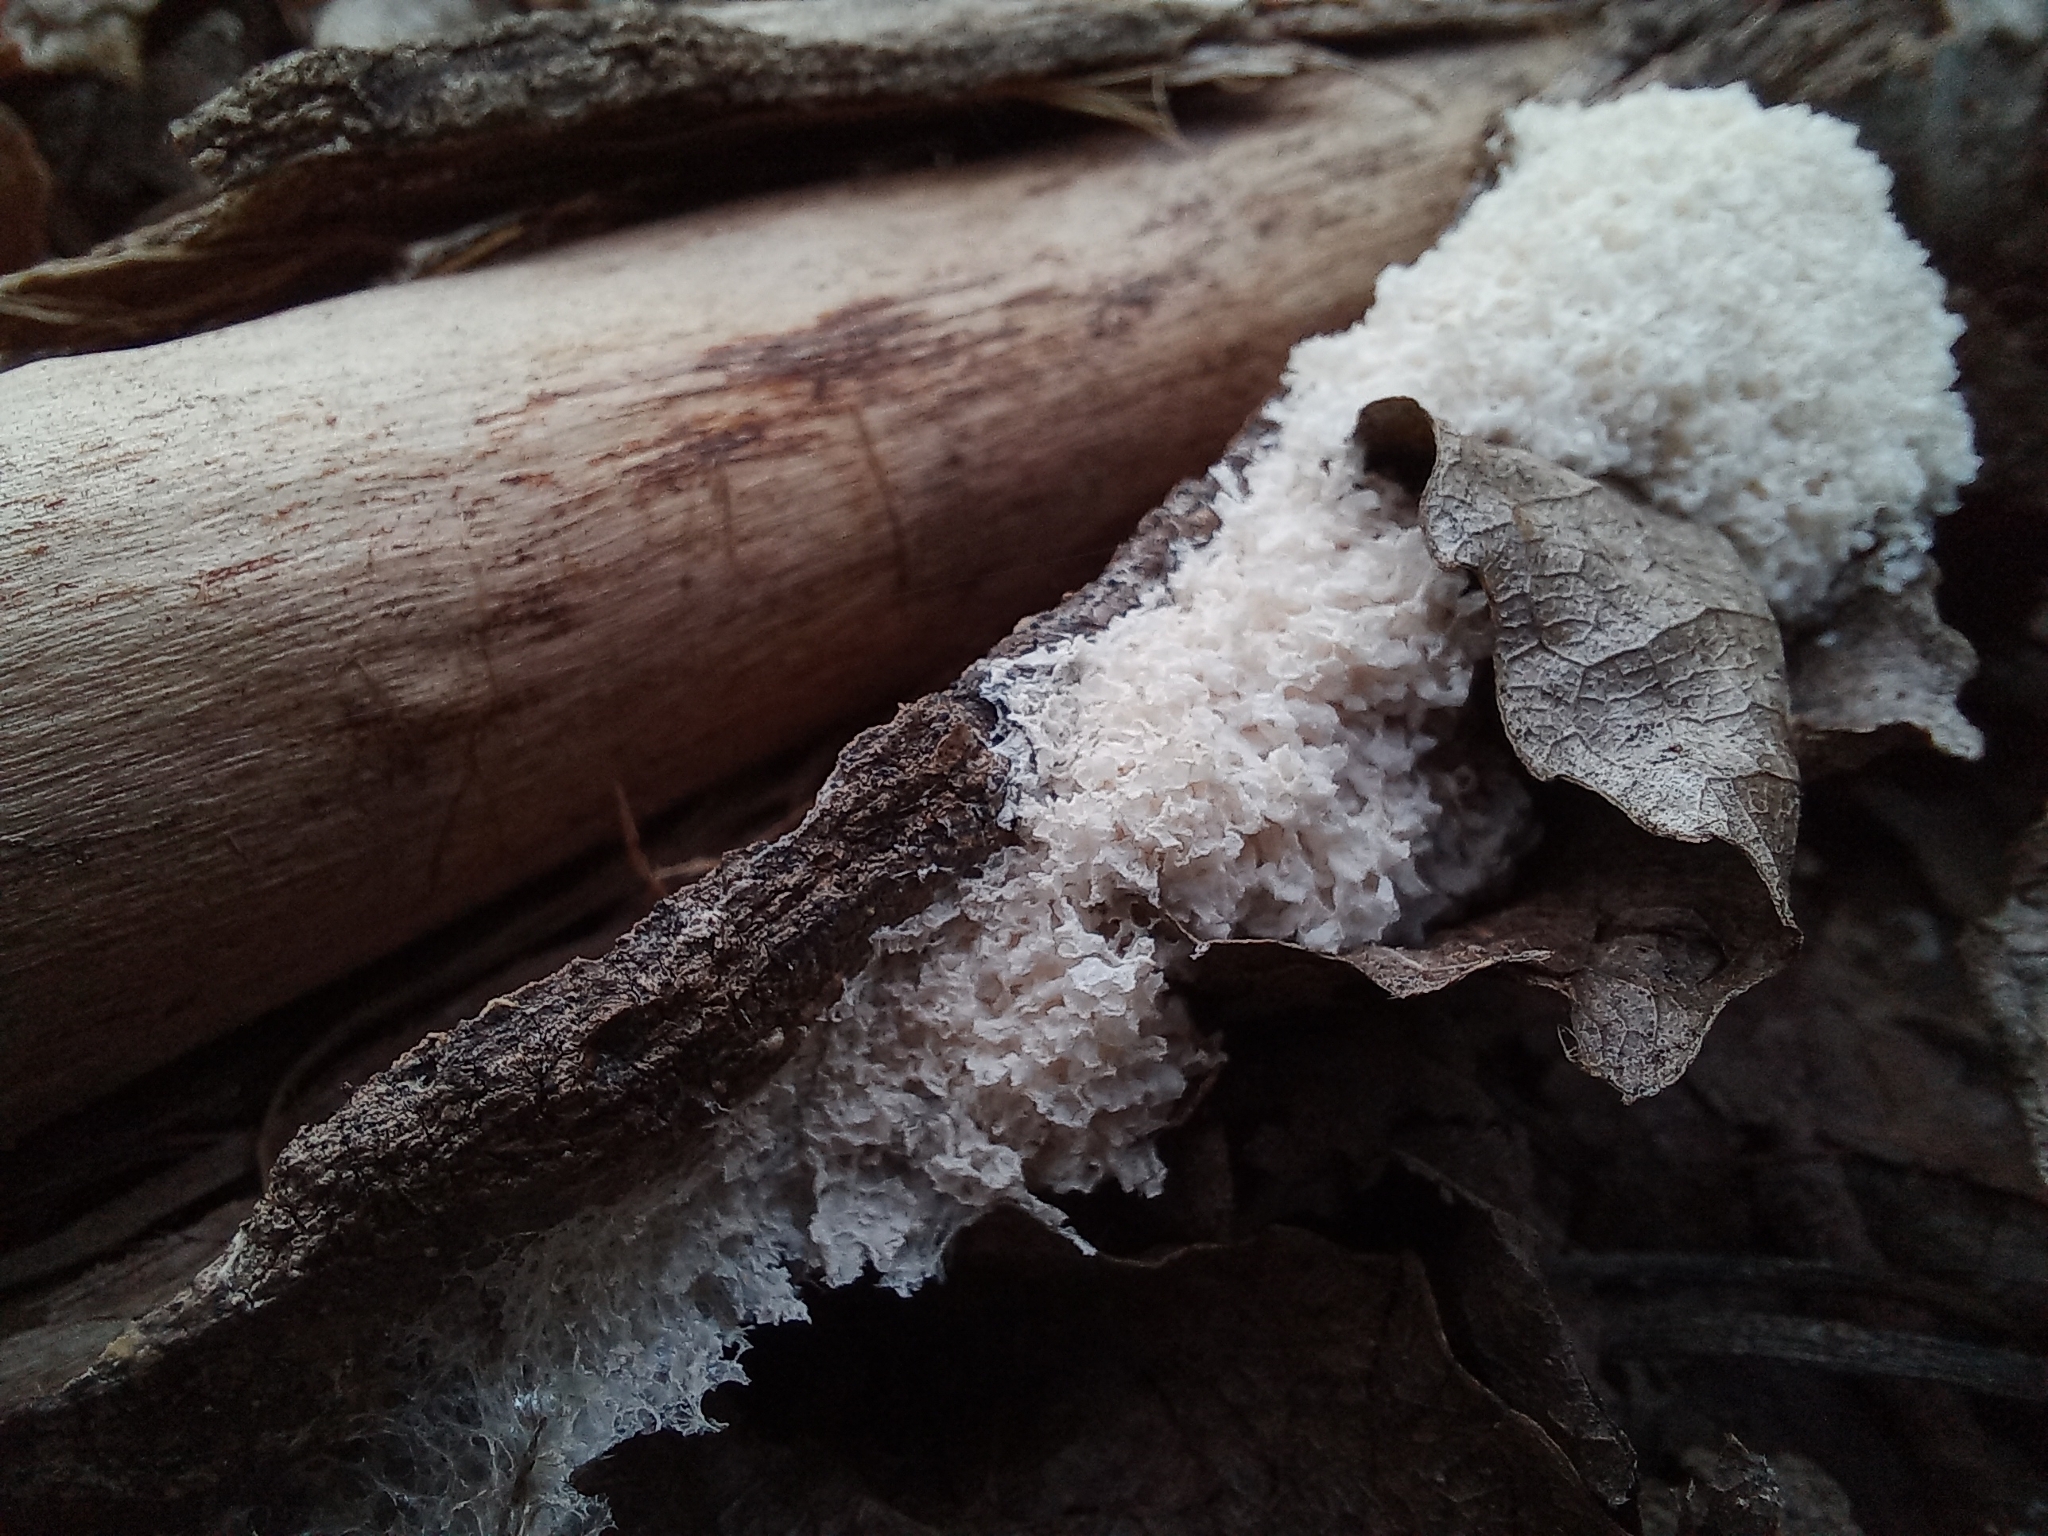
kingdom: Fungi
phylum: Basidiomycota
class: Agaricomycetes
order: Polyporales
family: Sparassidaceae
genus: Sparassis
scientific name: Sparassis crispa
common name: Brain fungus
